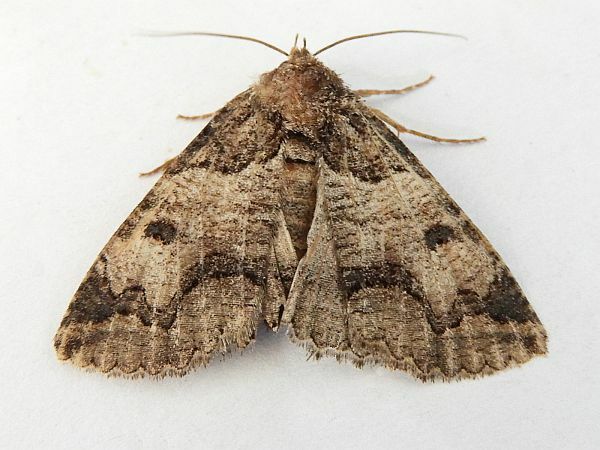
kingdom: Animalia
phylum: Arthropoda
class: Insecta
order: Lepidoptera
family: Erebidae
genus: Zale
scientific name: Zale colorado
